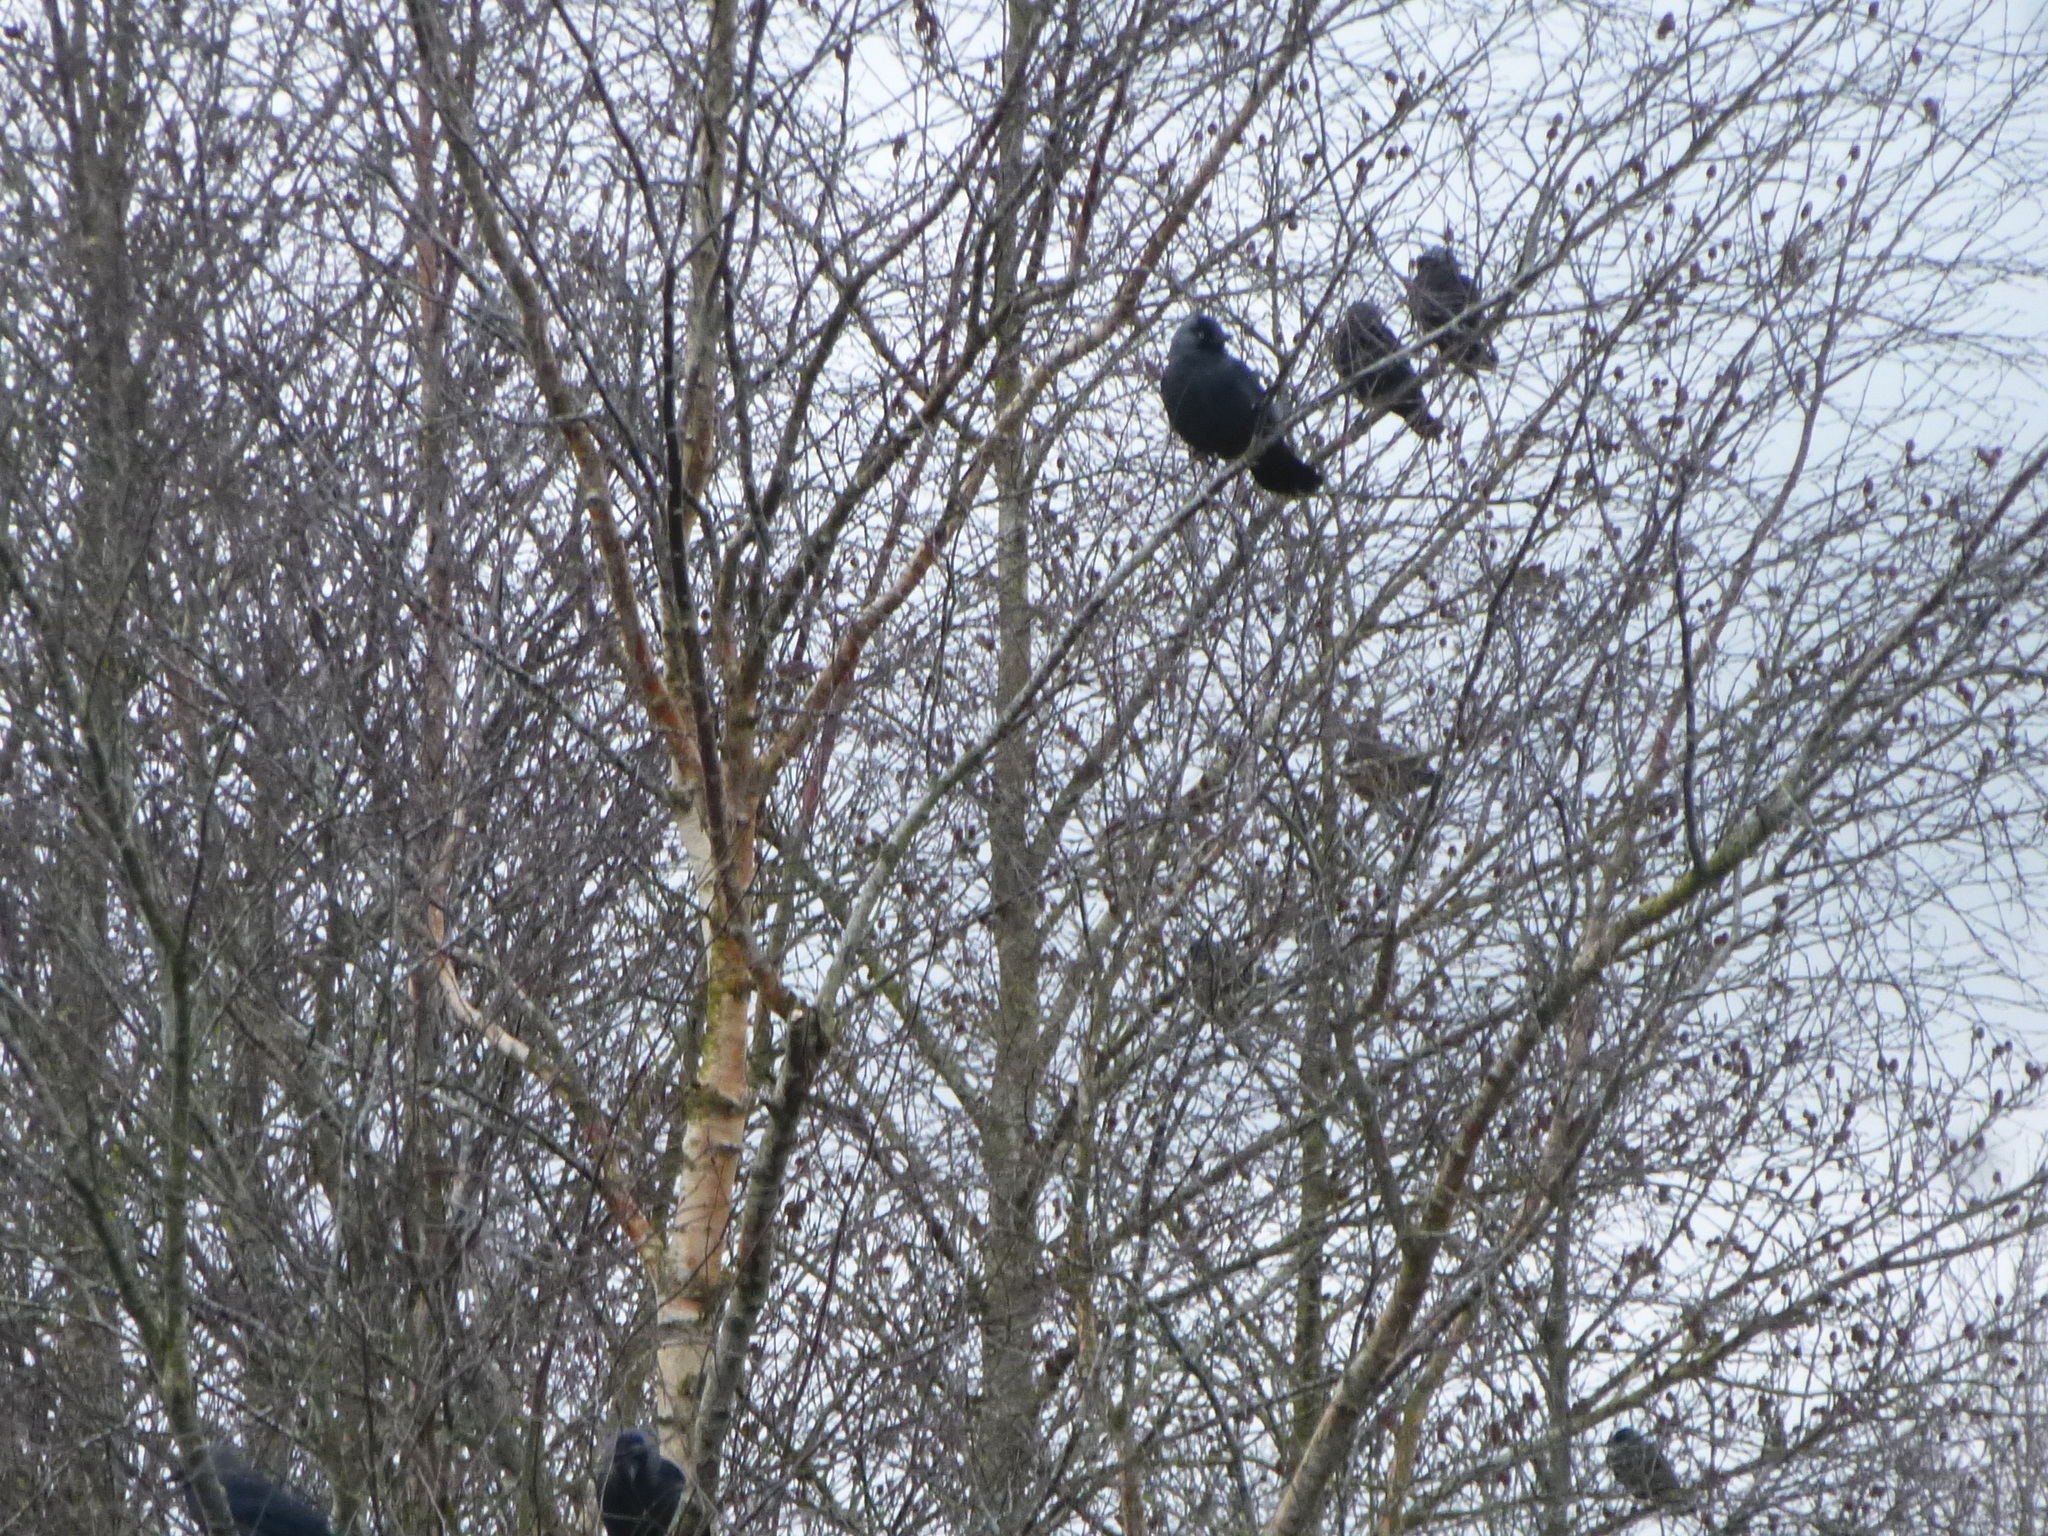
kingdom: Animalia
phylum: Chordata
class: Aves
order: Passeriformes
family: Corvidae
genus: Coloeus
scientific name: Coloeus monedula
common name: Western jackdaw
